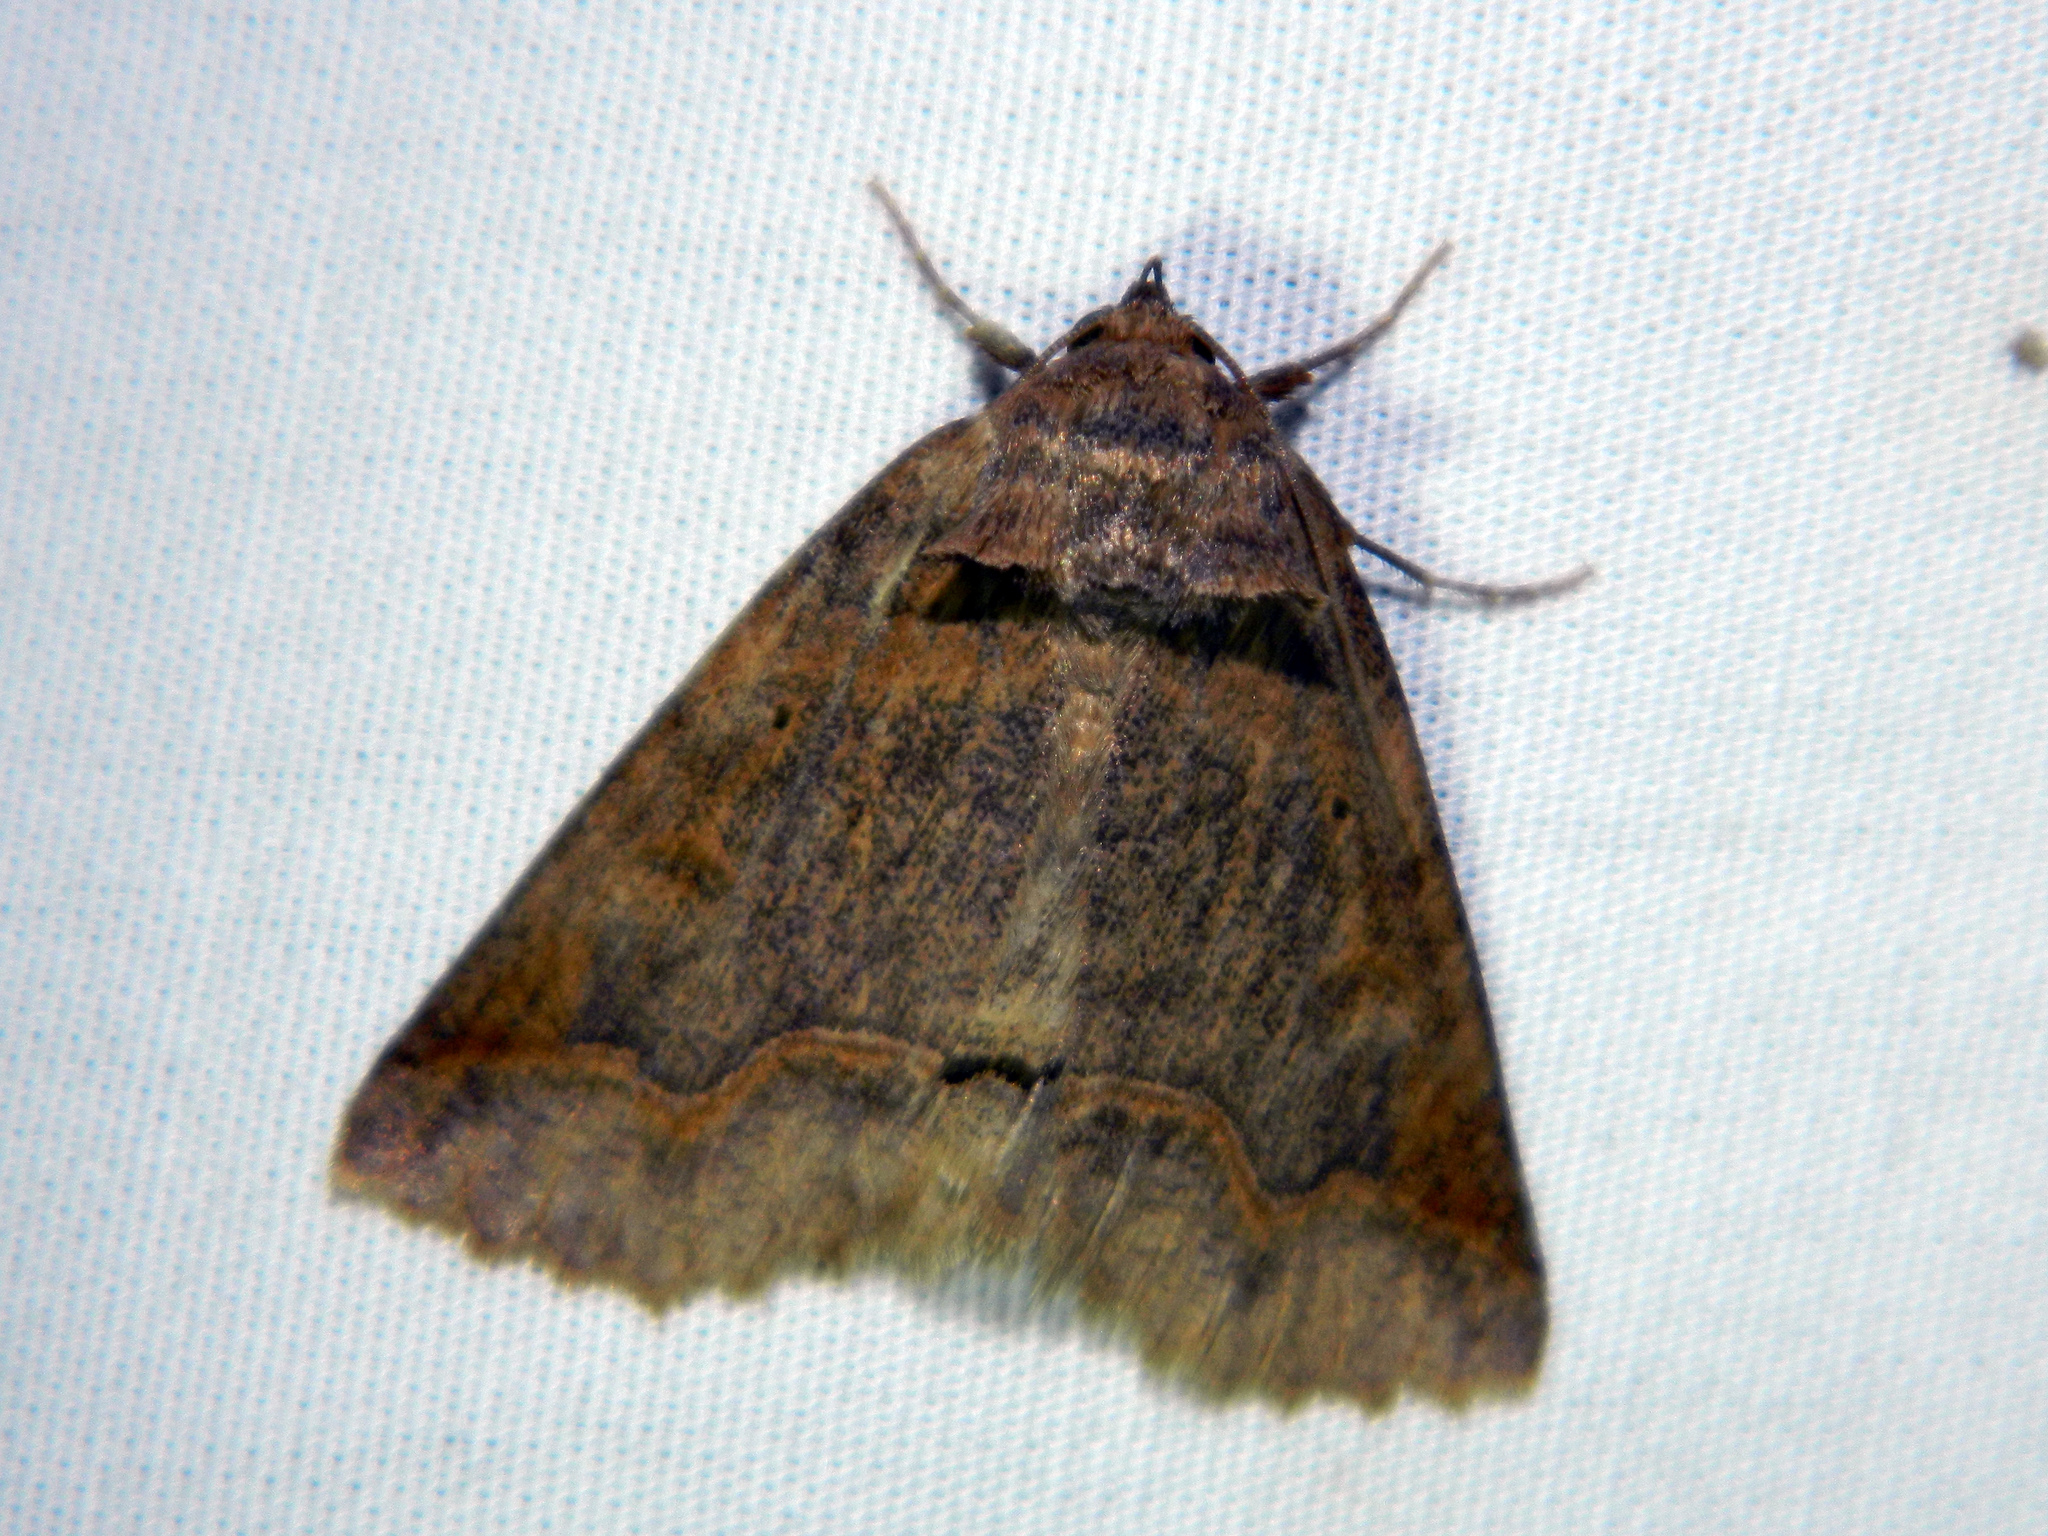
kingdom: Animalia
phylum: Arthropoda
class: Insecta
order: Lepidoptera
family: Erebidae
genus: Zale
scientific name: Zale unilineata
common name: One-lined zale moth
